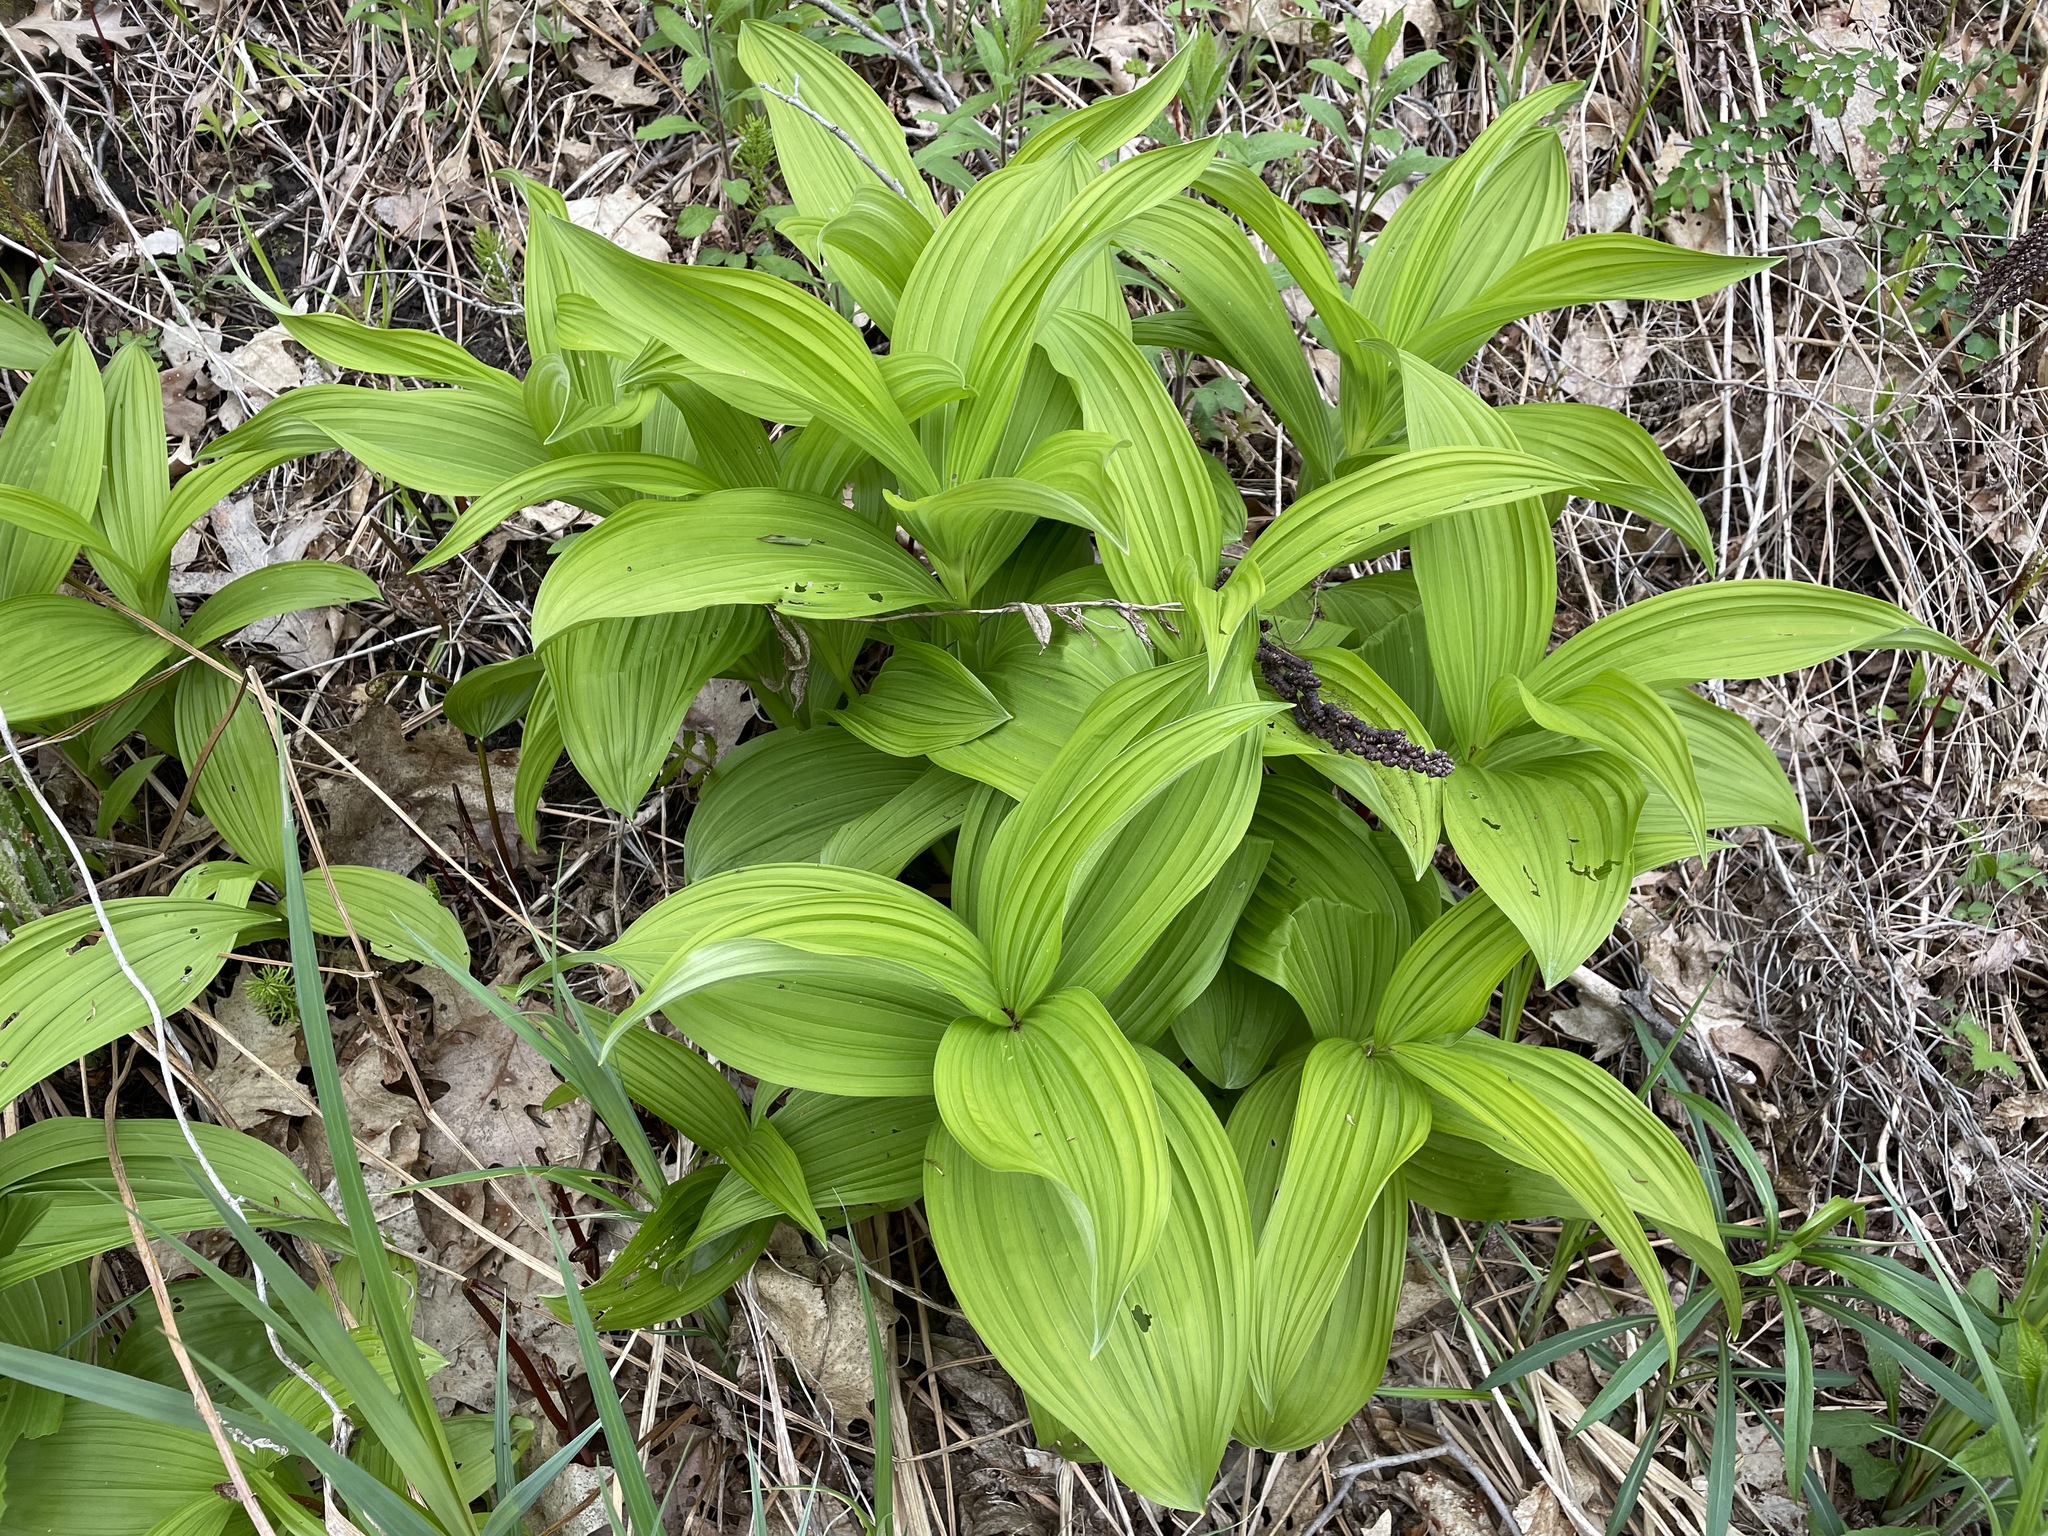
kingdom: Plantae
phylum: Tracheophyta
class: Liliopsida
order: Liliales
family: Melanthiaceae
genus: Veratrum
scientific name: Veratrum viride
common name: American false hellebore
